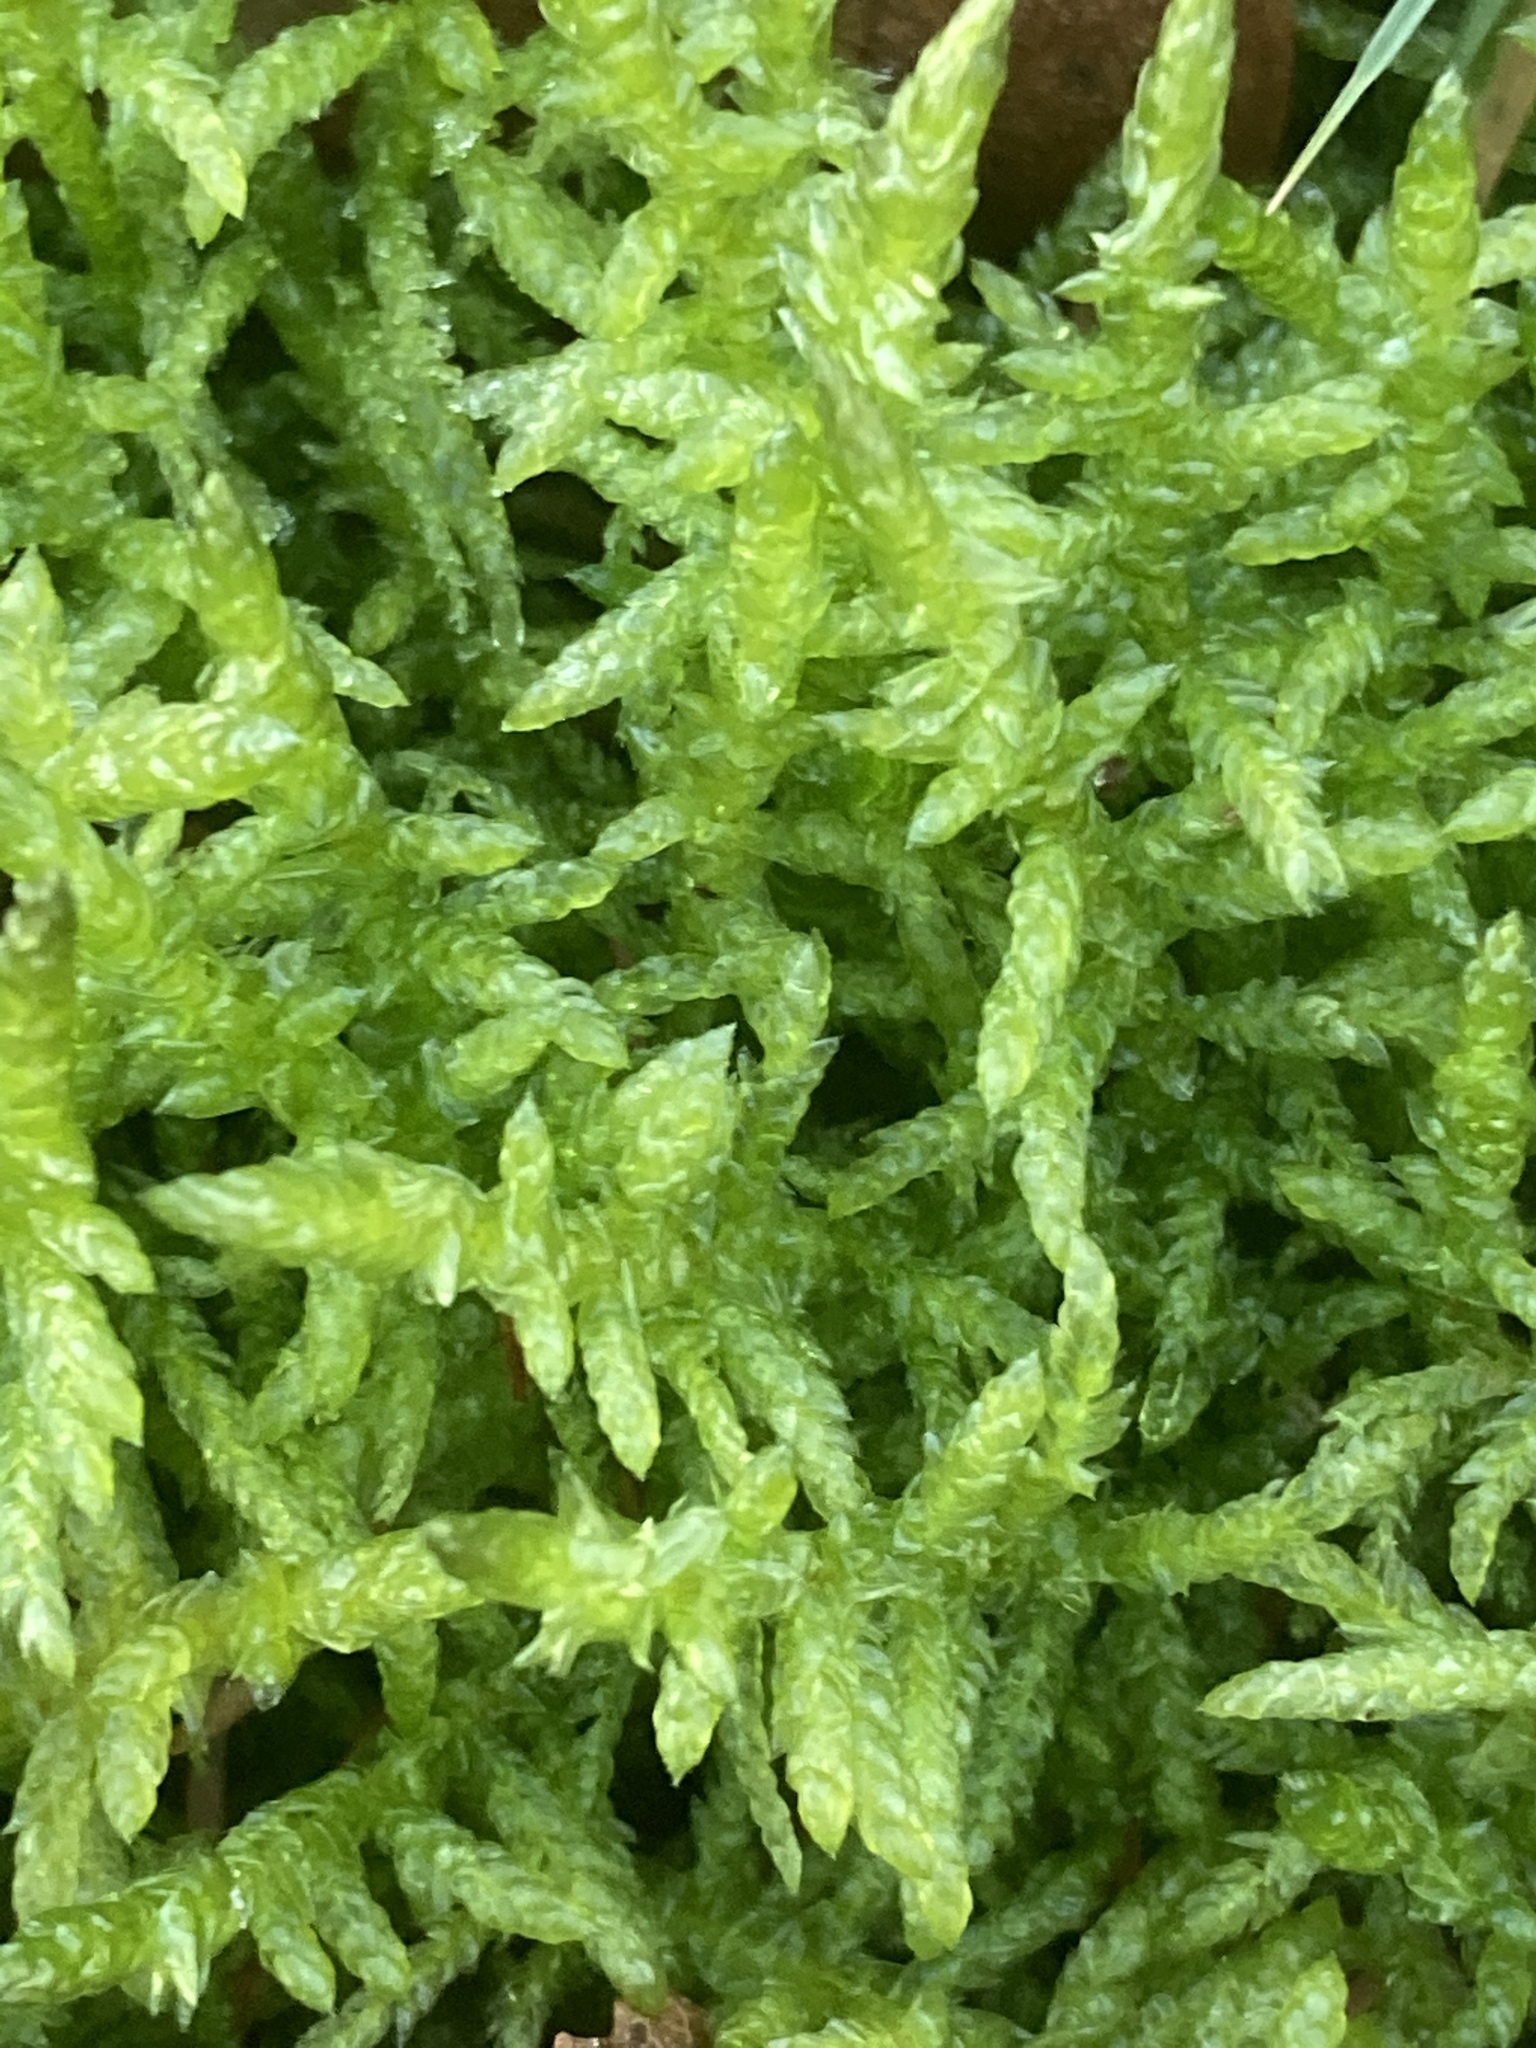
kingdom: Plantae
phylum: Bryophyta
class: Bryopsida
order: Hypnales
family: Brachytheciaceae
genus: Pseudoscleropodium
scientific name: Pseudoscleropodium purum
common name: Neat feather-moss
